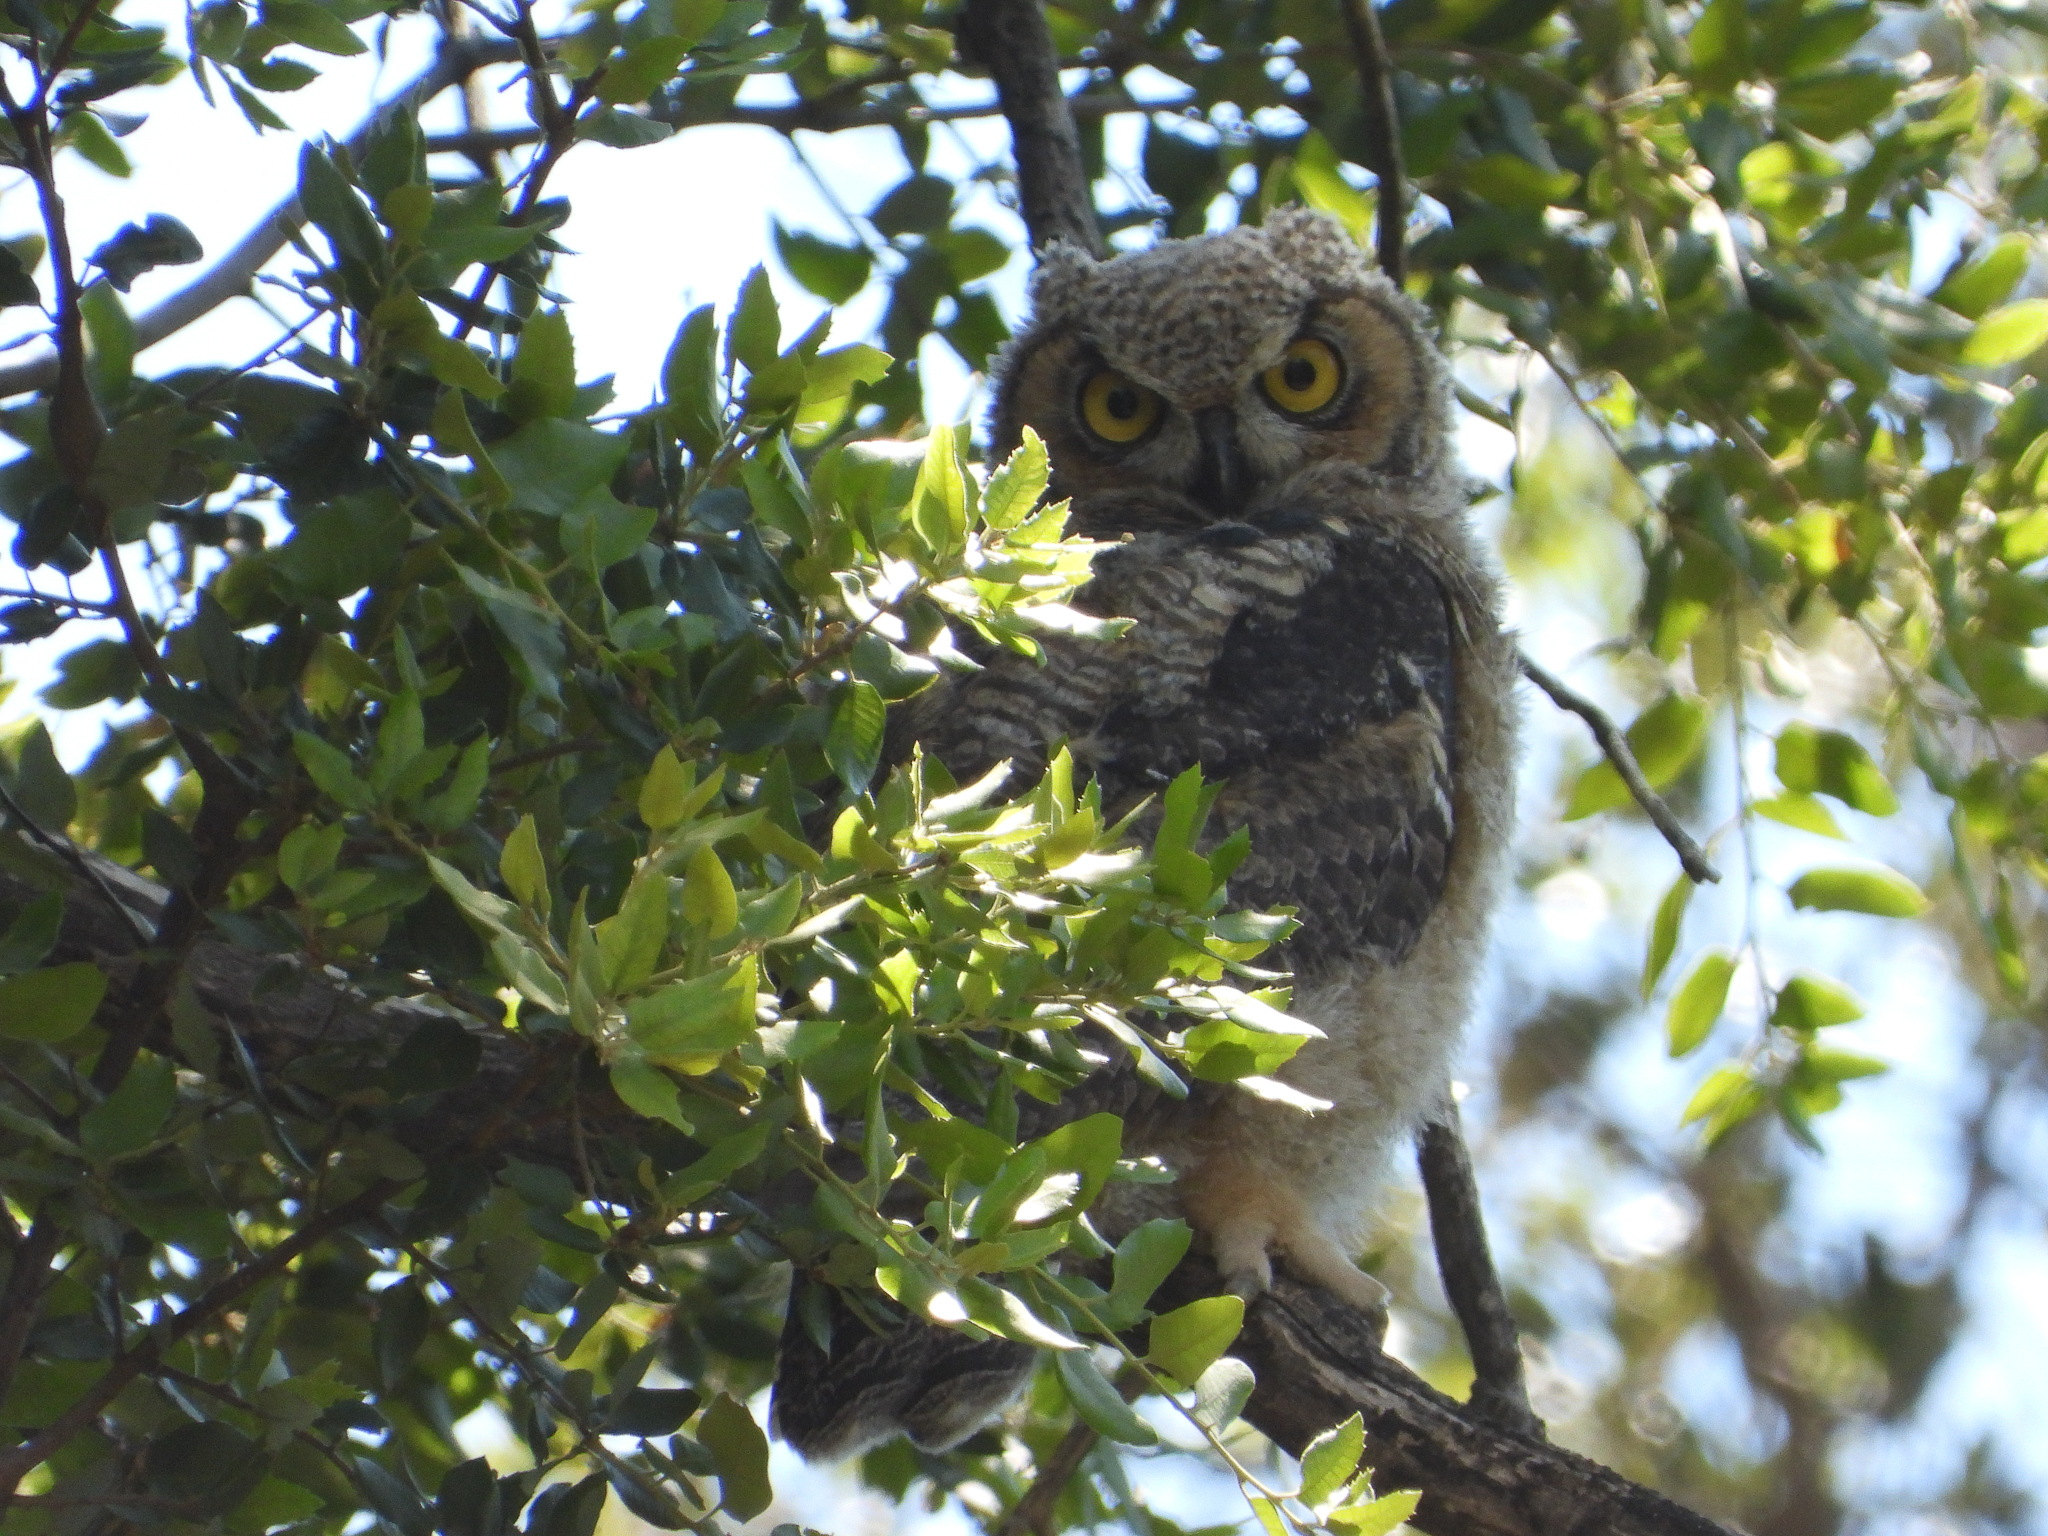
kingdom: Animalia
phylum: Chordata
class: Aves
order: Strigiformes
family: Strigidae
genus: Bubo
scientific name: Bubo virginianus
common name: Great horned owl
